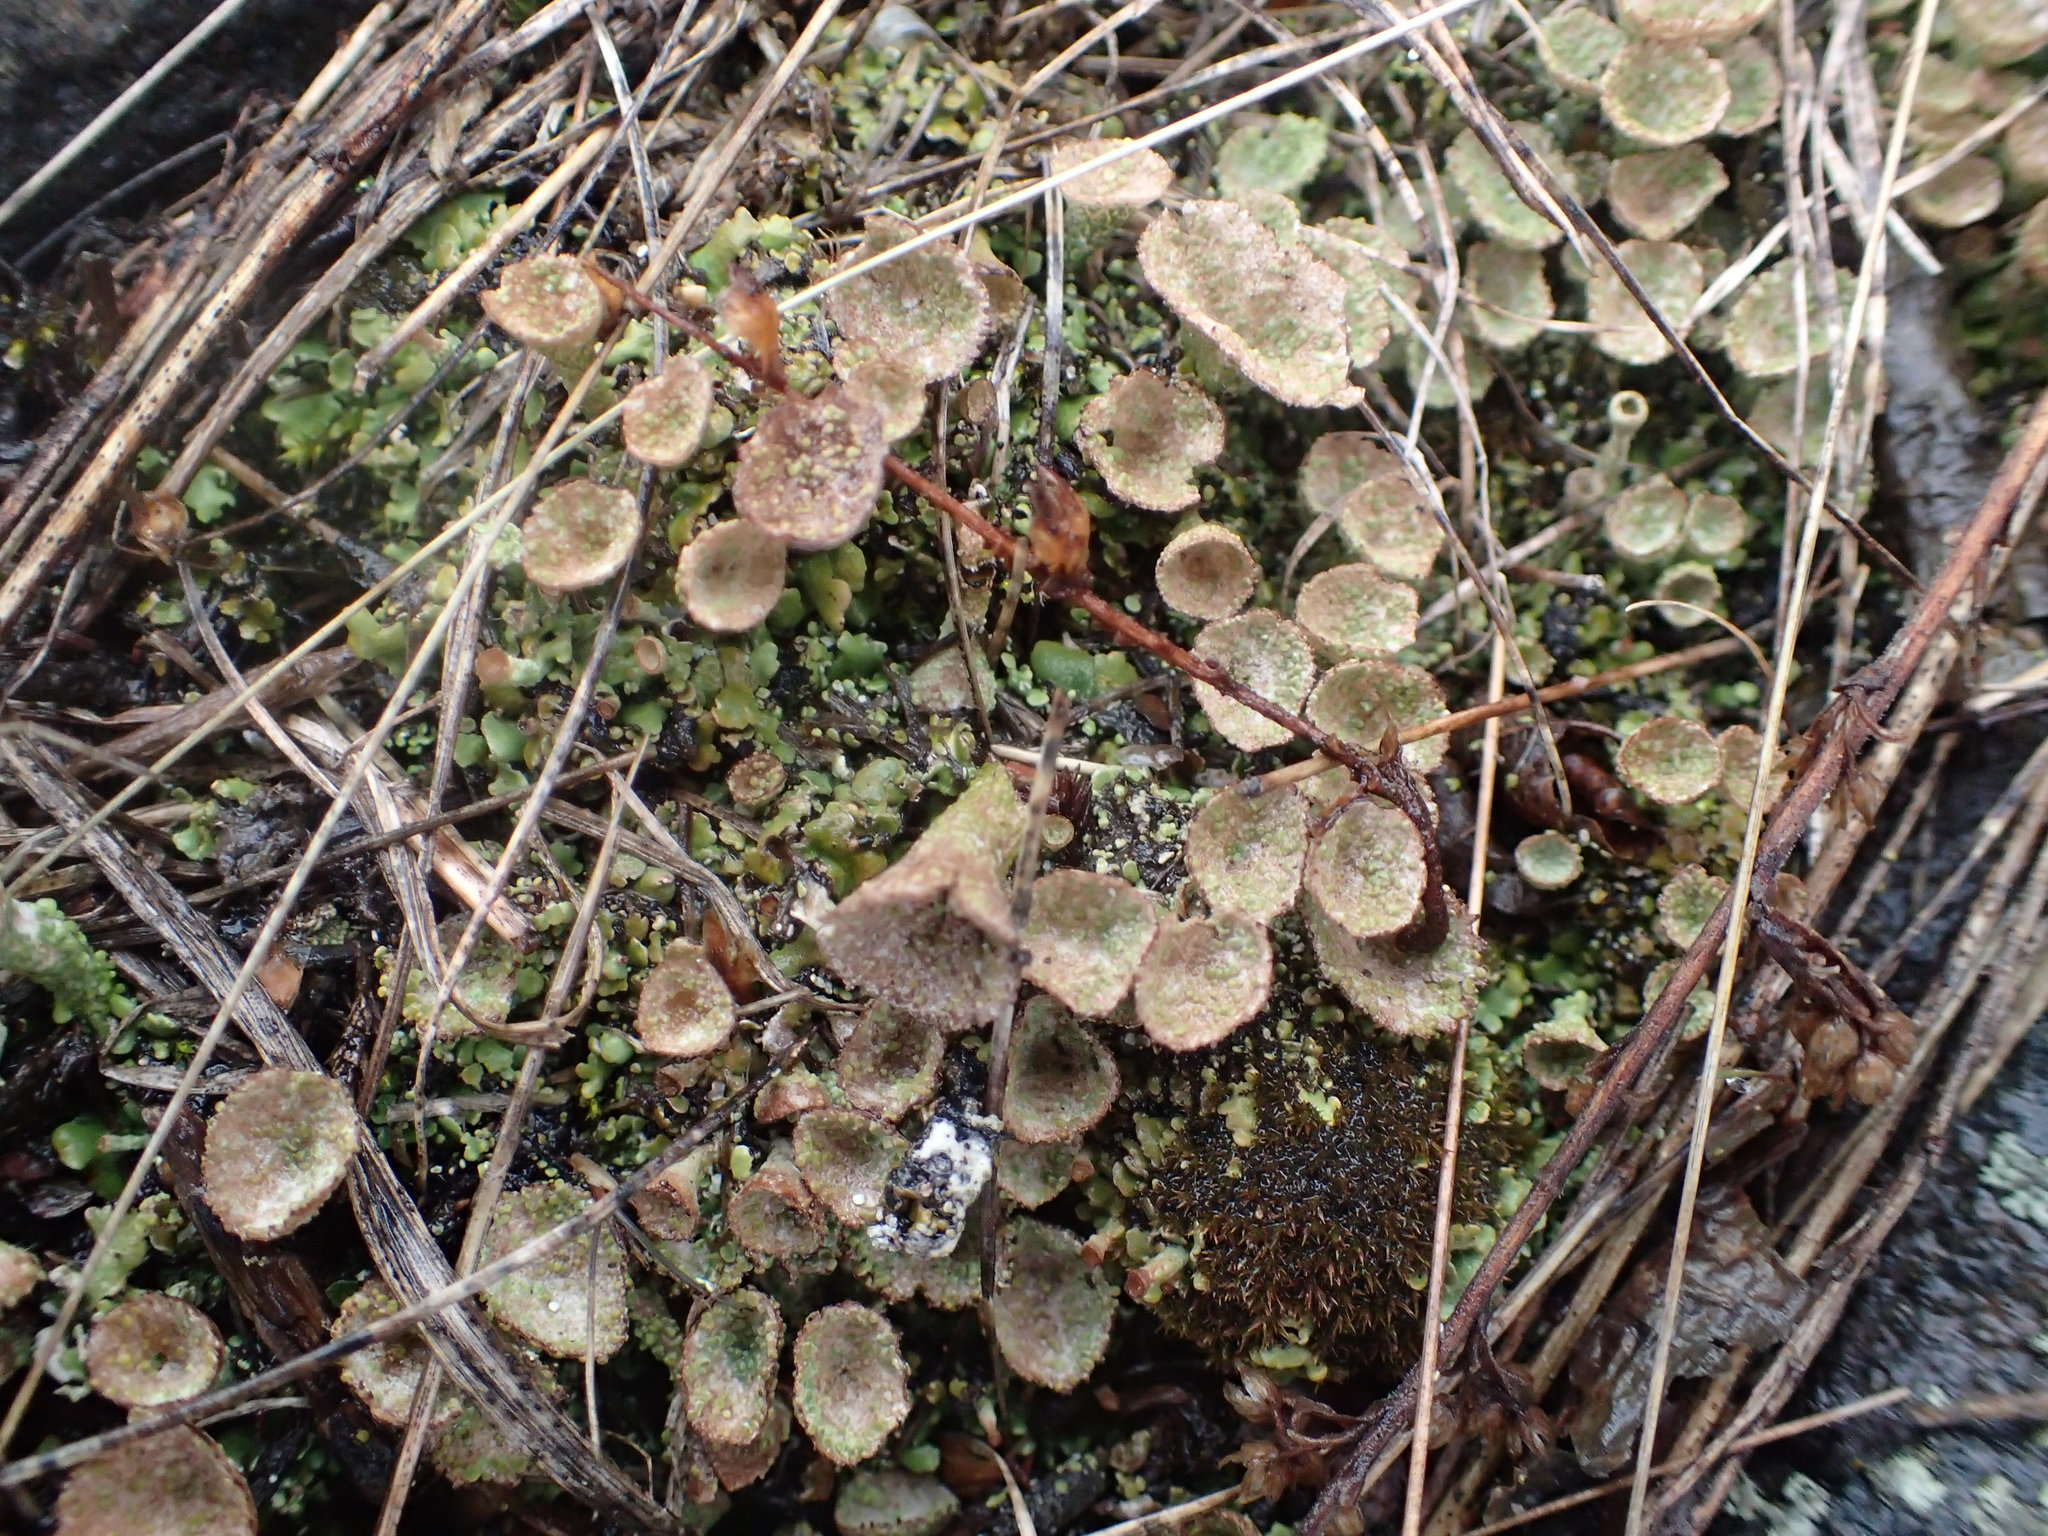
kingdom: Fungi
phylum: Ascomycota
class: Lecanoromycetes
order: Lecanorales
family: Cladoniaceae
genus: Cladonia
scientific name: Cladonia chlorophaea
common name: Mealy pixie cup
